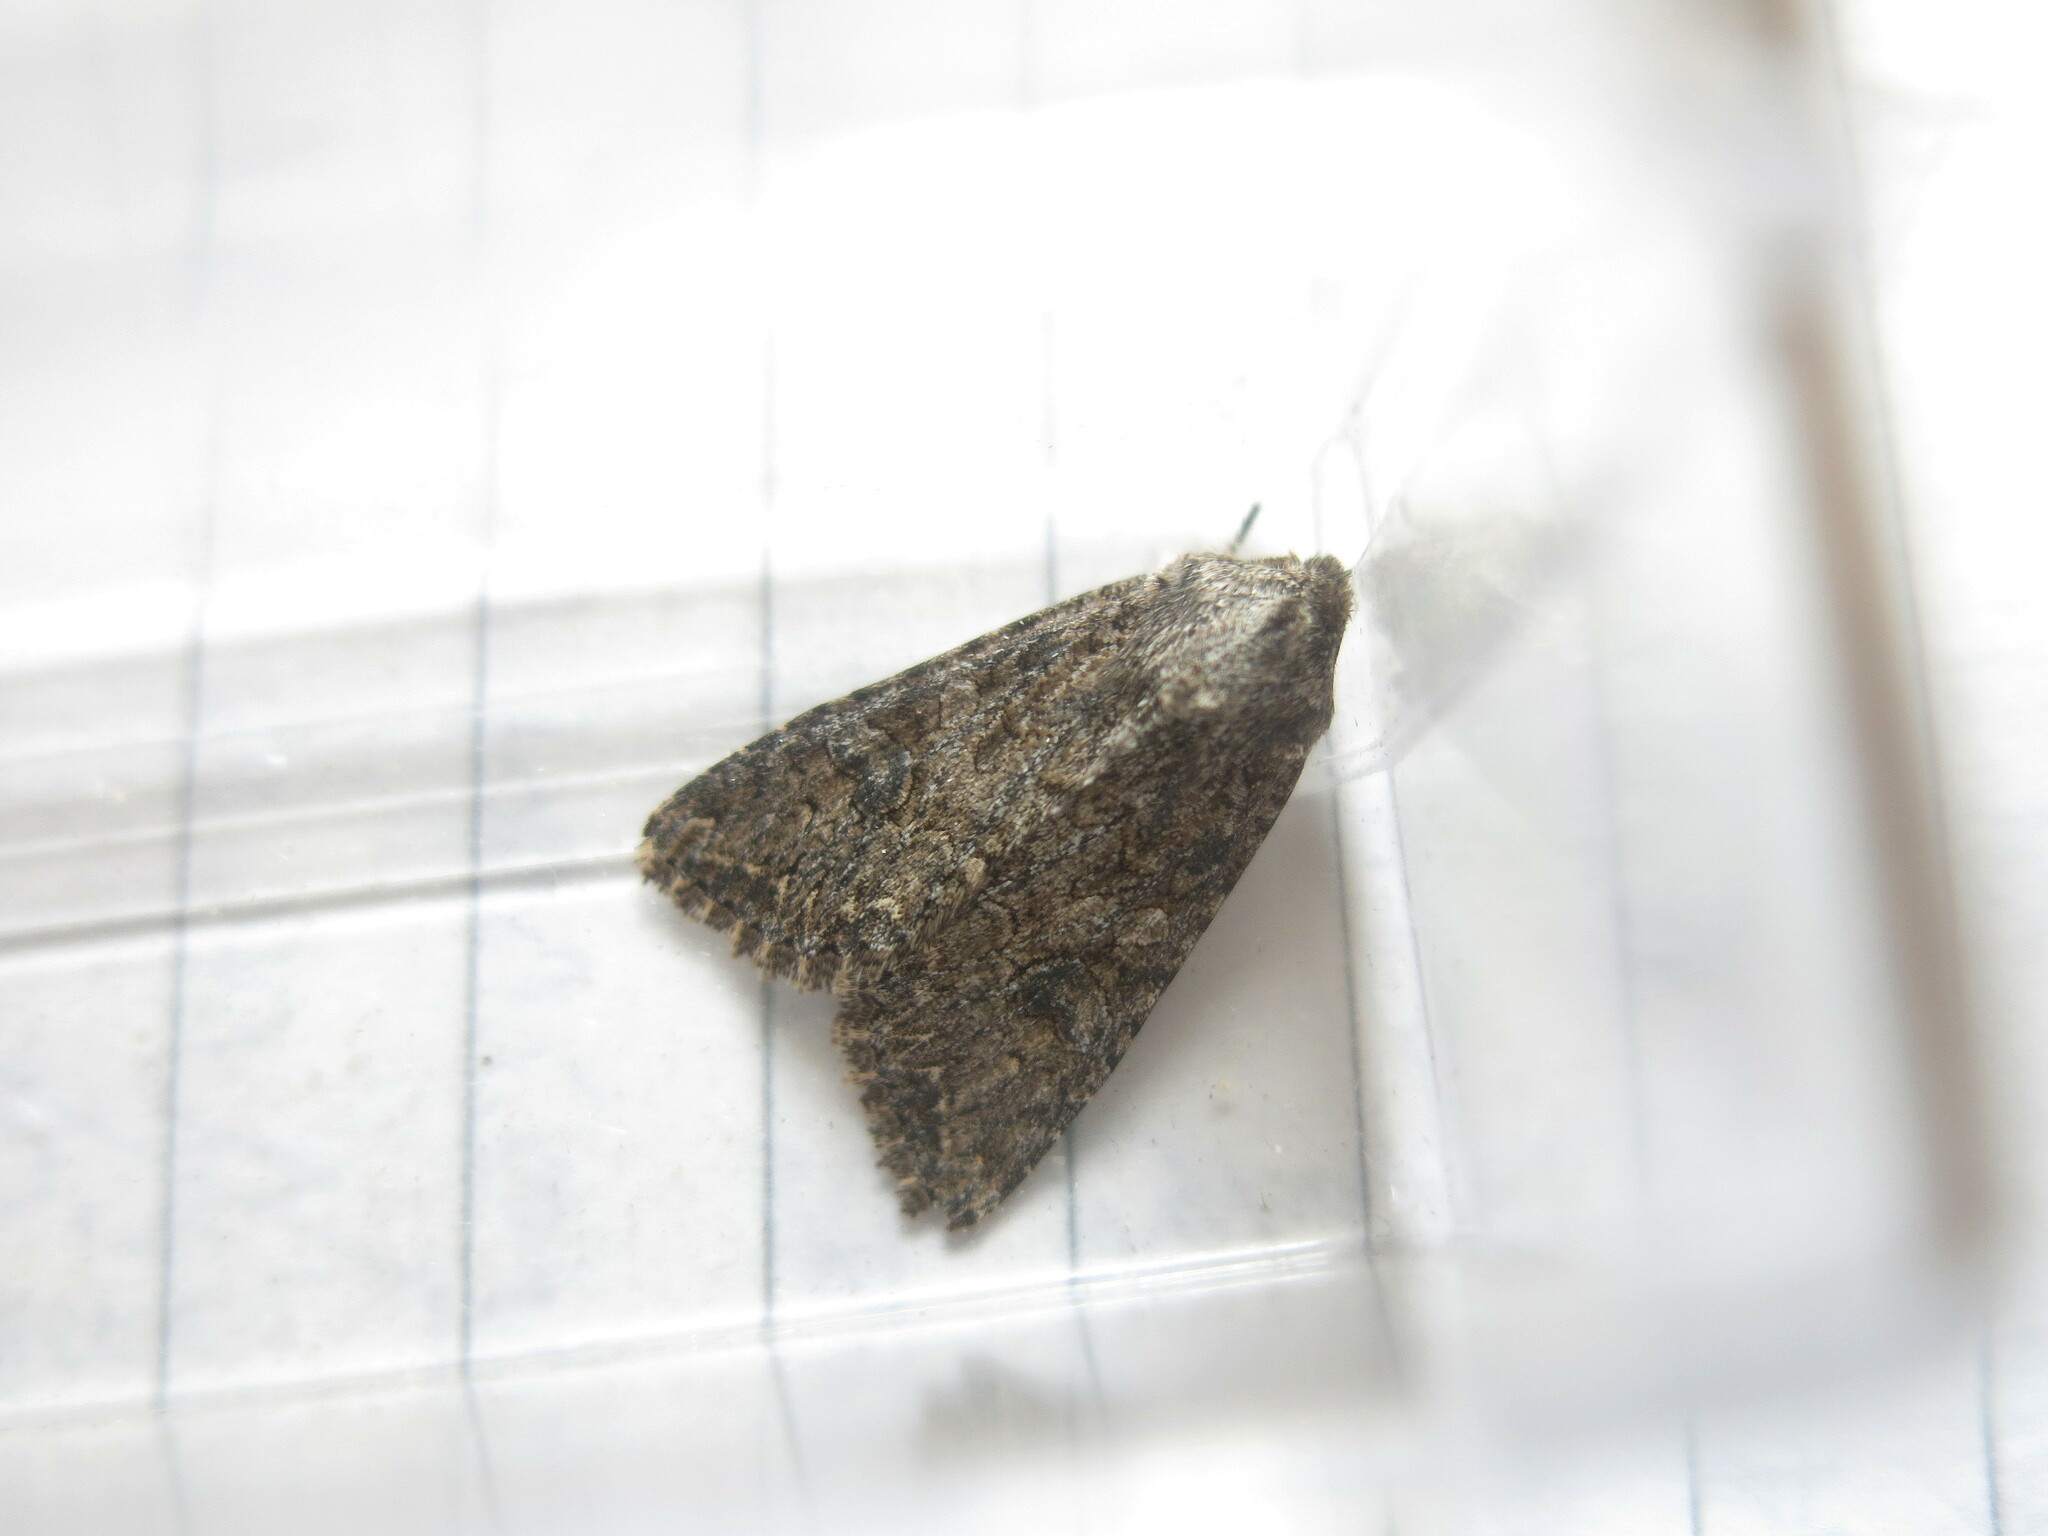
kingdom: Animalia
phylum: Arthropoda
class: Insecta
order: Lepidoptera
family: Noctuidae
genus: Anarta
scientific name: Anarta trifolii
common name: Clover cutworm moth
